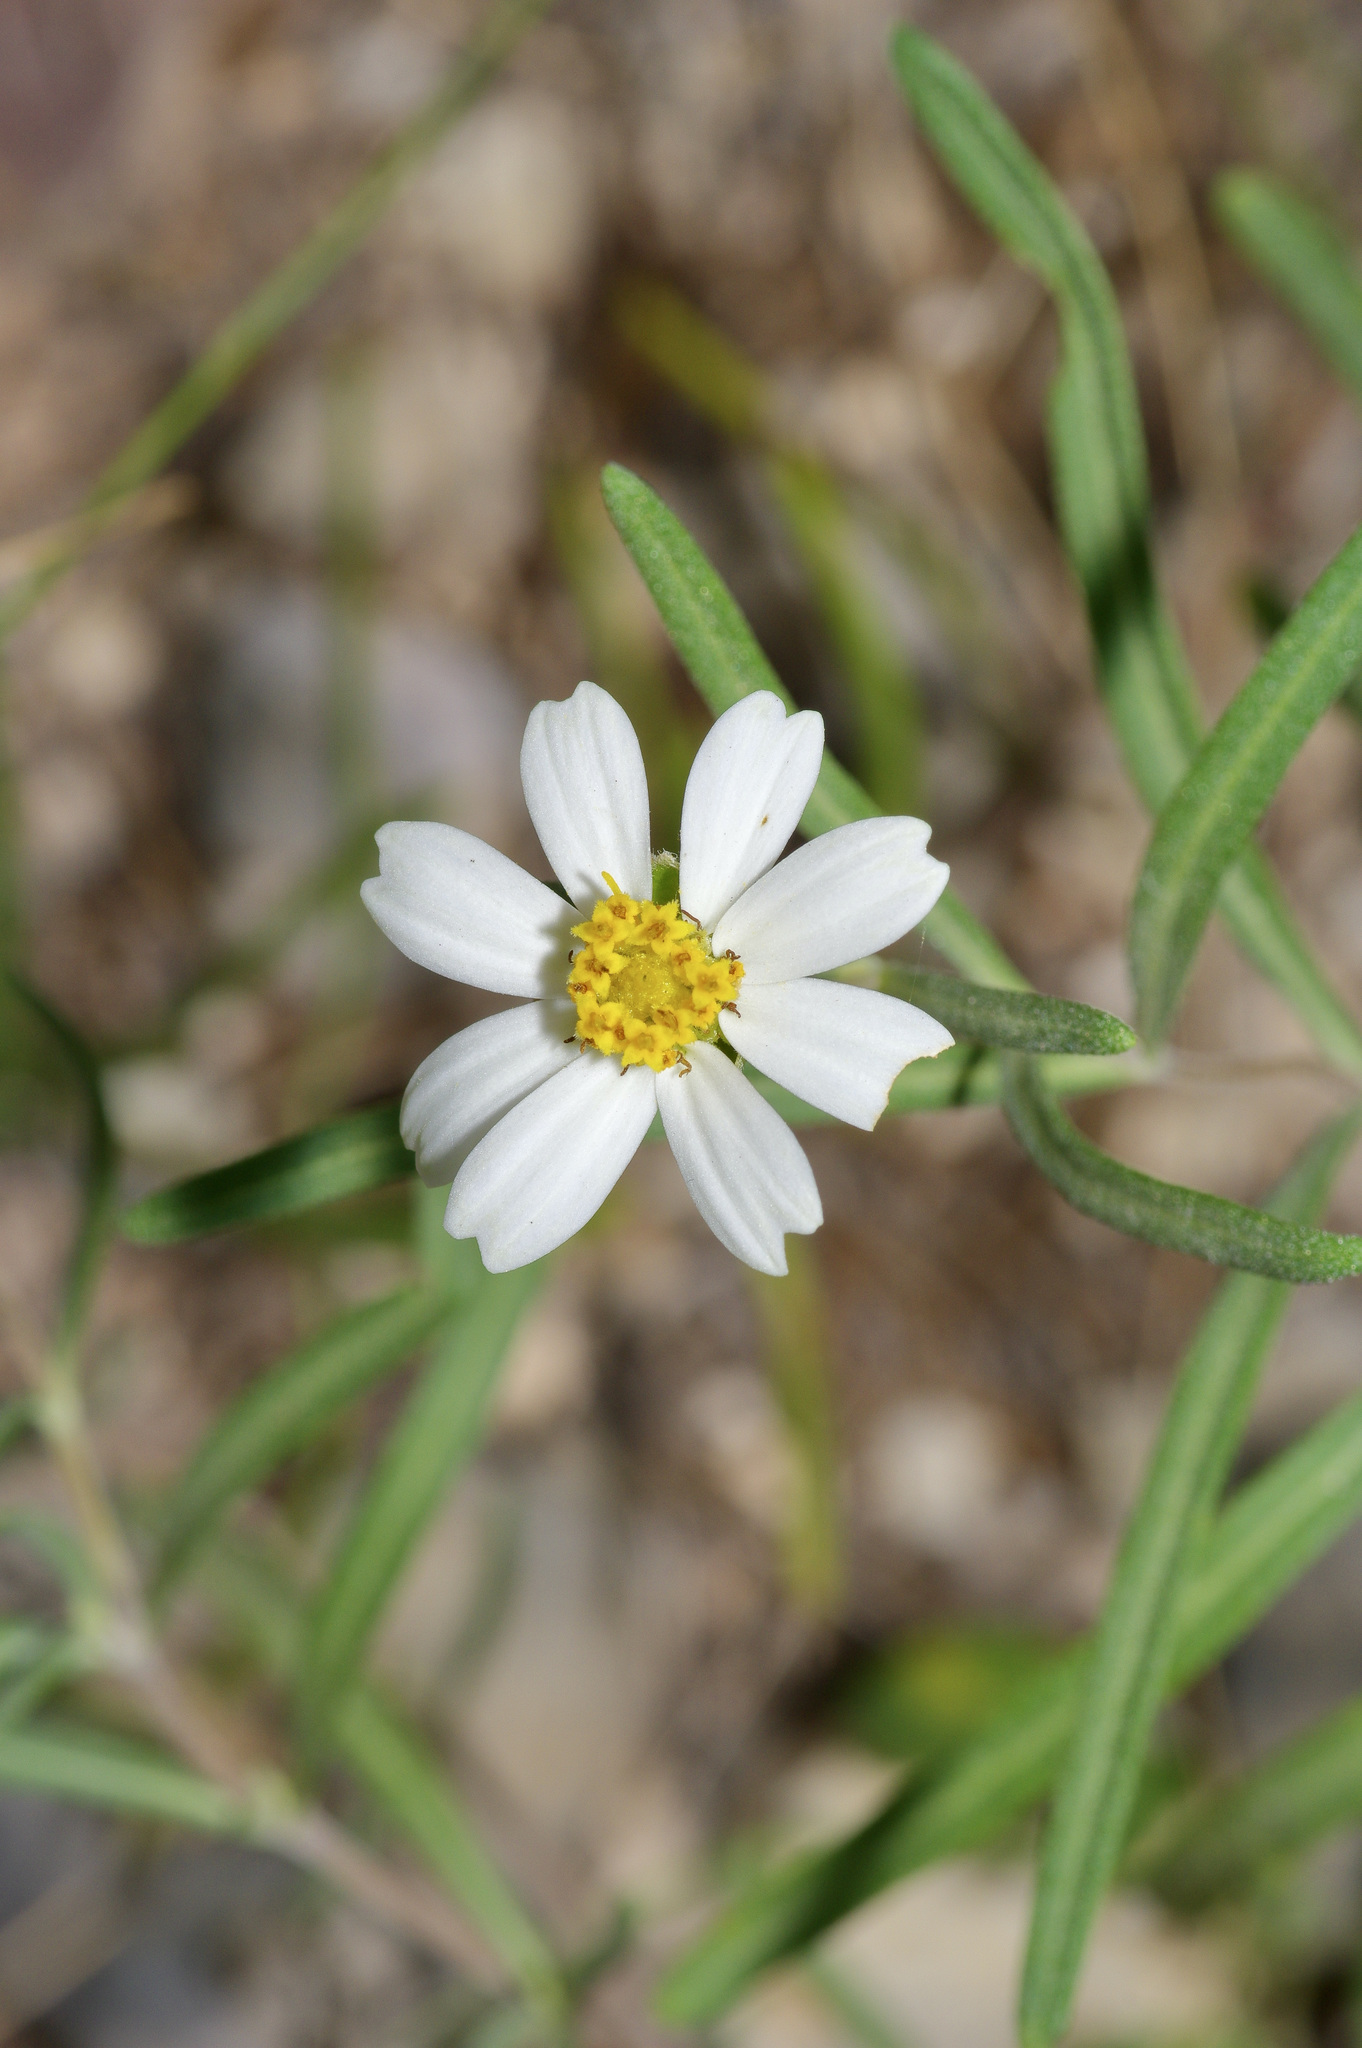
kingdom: Plantae
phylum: Tracheophyta
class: Magnoliopsida
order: Asterales
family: Asteraceae
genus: Melampodium
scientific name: Melampodium leucanthum
